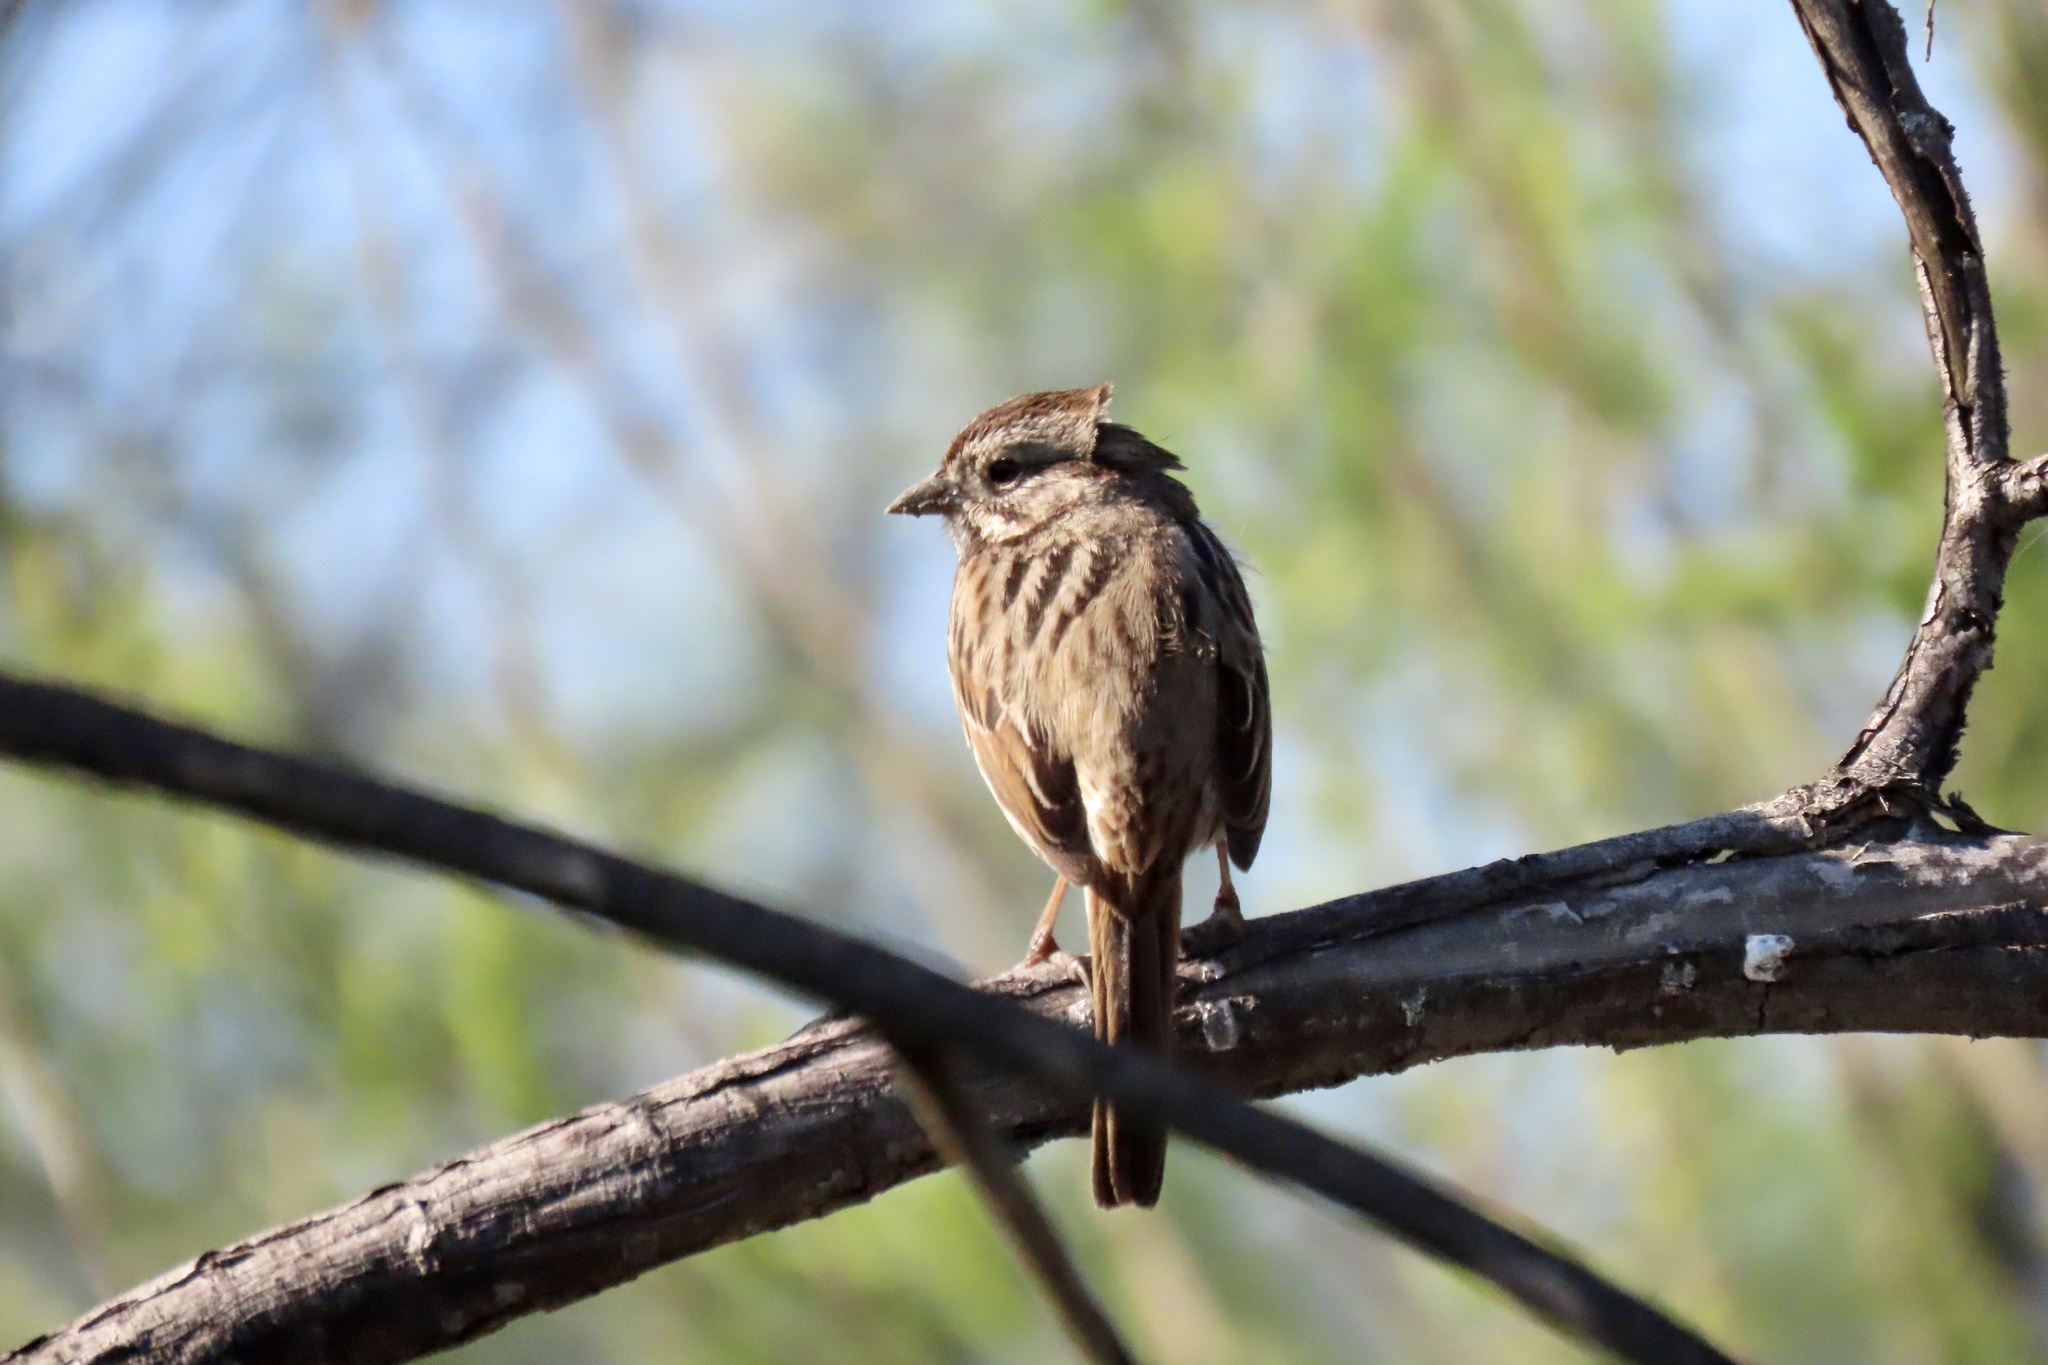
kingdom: Animalia
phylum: Chordata
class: Aves
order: Passeriformes
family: Passerellidae
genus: Melospiza
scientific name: Melospiza melodia
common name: Song sparrow
